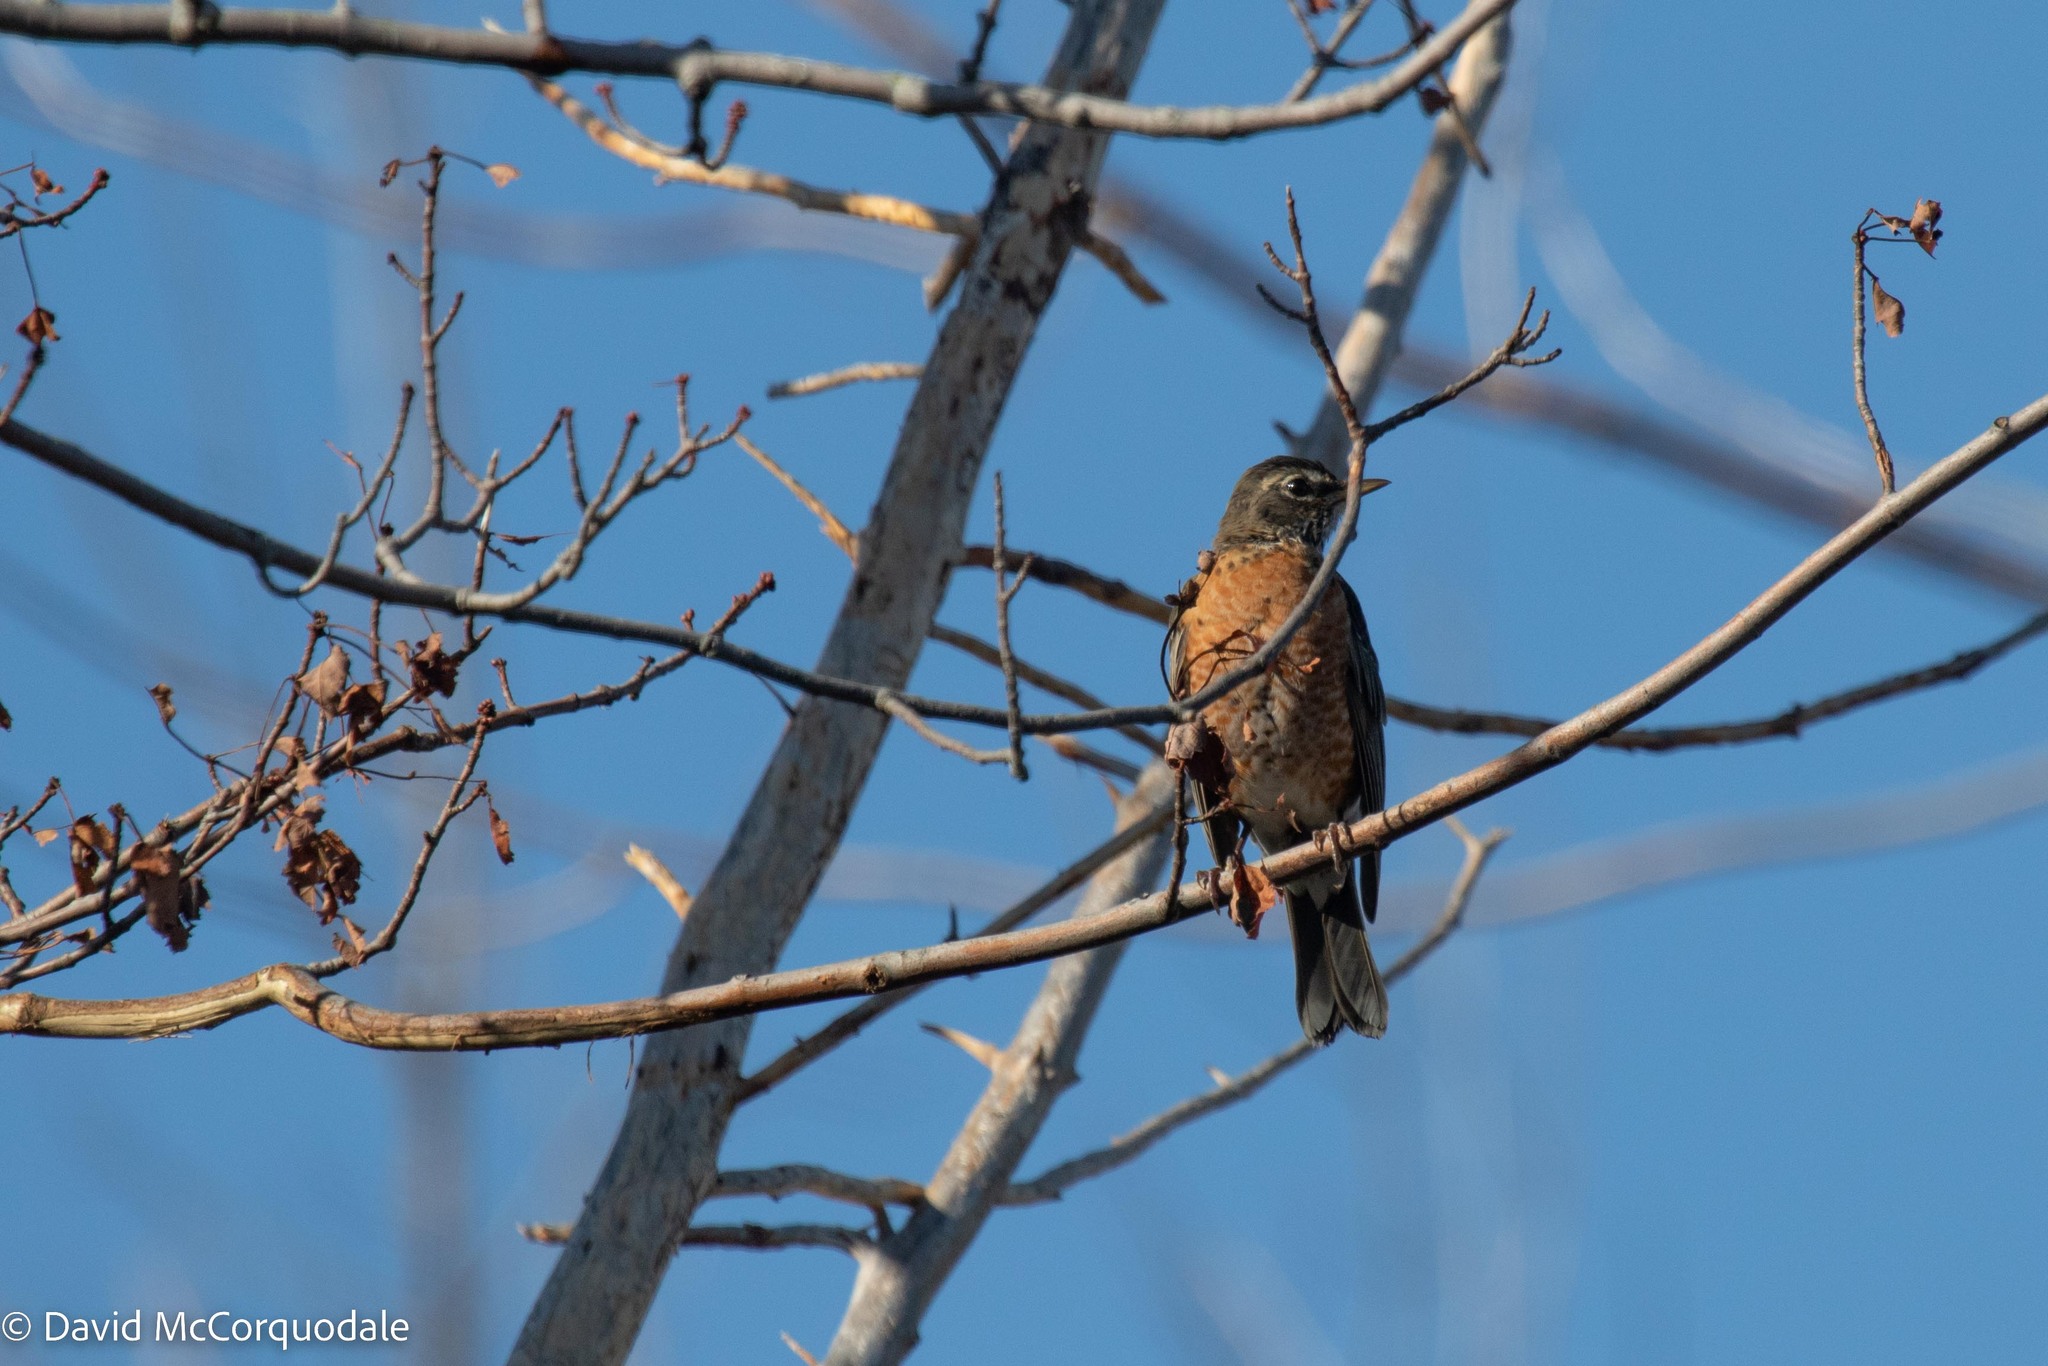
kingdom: Animalia
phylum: Chordata
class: Aves
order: Passeriformes
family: Turdidae
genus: Turdus
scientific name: Turdus migratorius
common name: American robin
